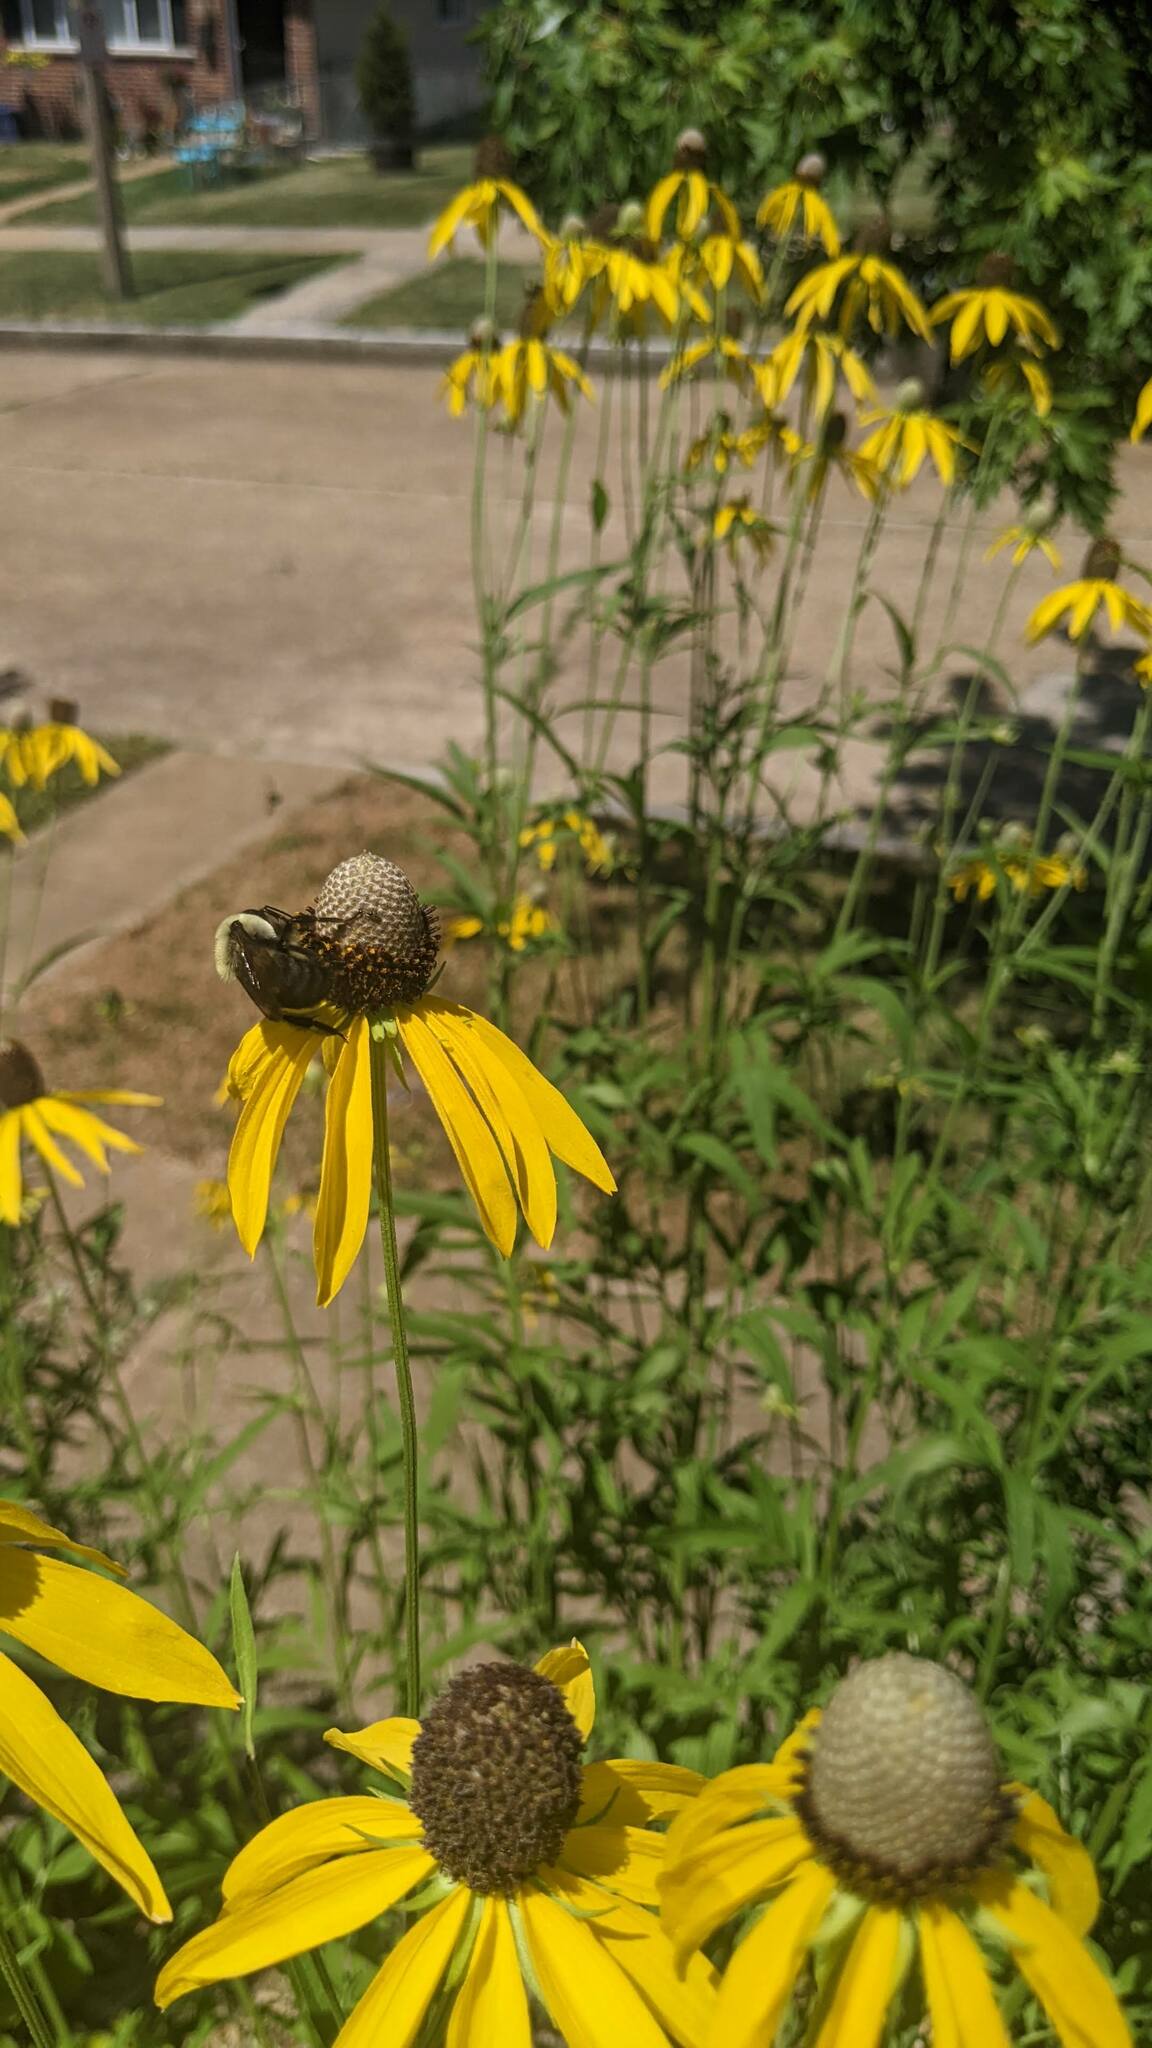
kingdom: Animalia
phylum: Arthropoda
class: Insecta
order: Hymenoptera
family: Apidae
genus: Bombus
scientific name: Bombus griseocollis
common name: Brown-belted bumble bee
